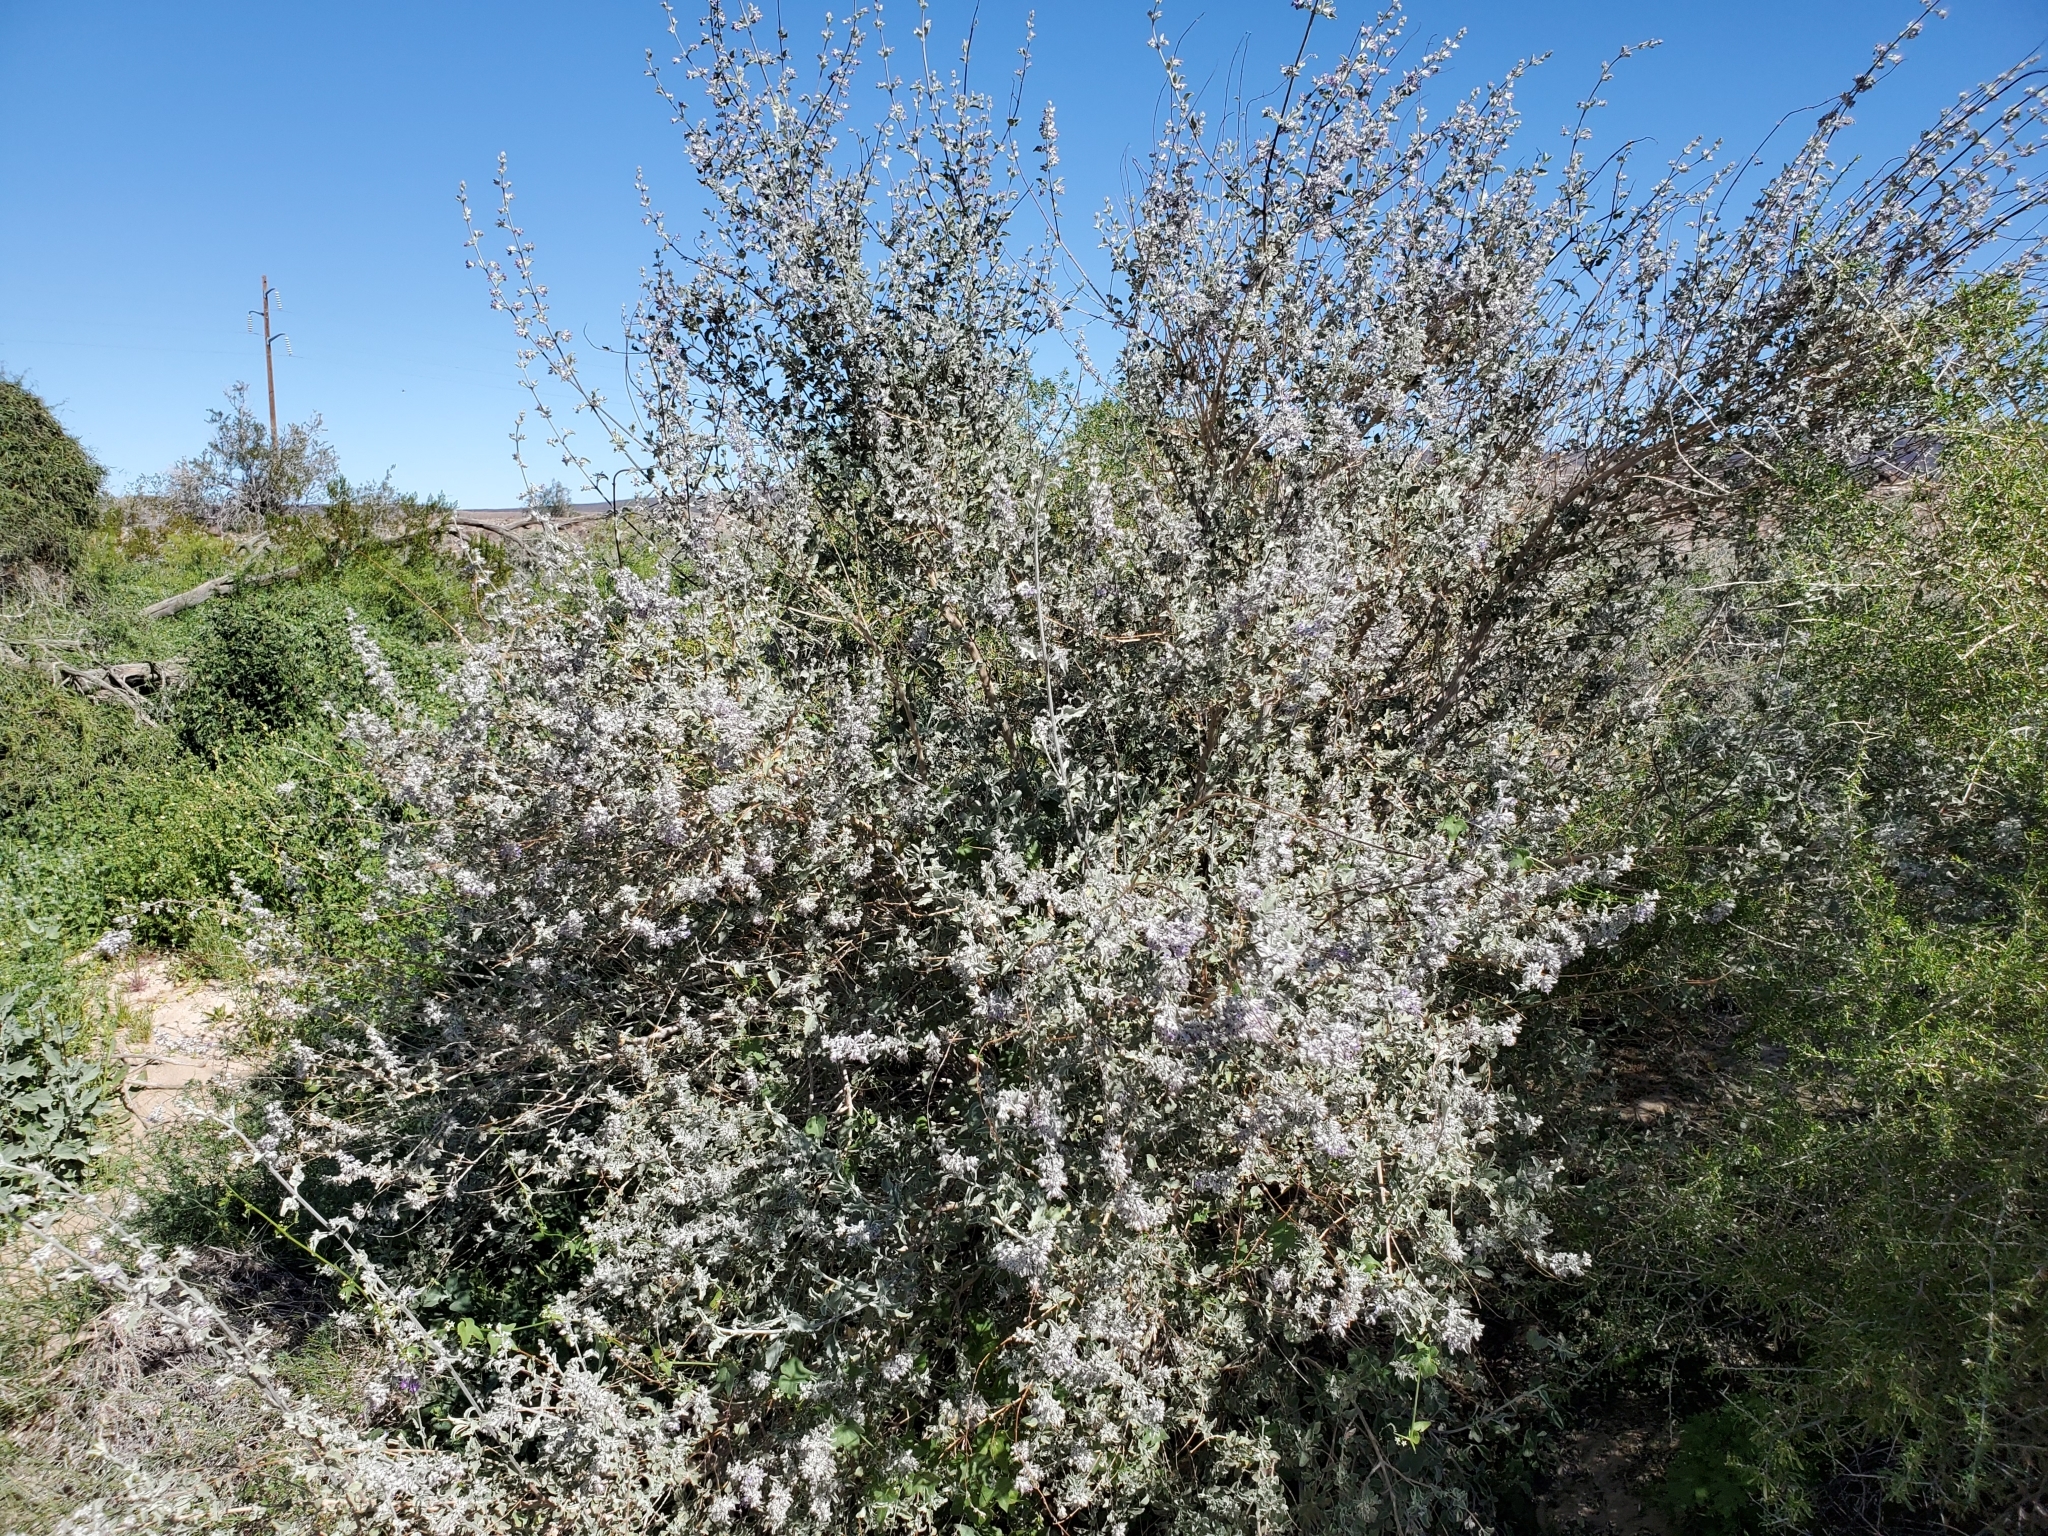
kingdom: Plantae
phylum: Tracheophyta
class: Magnoliopsida
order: Lamiales
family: Lamiaceae
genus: Condea
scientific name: Condea emoryi
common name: Chia
